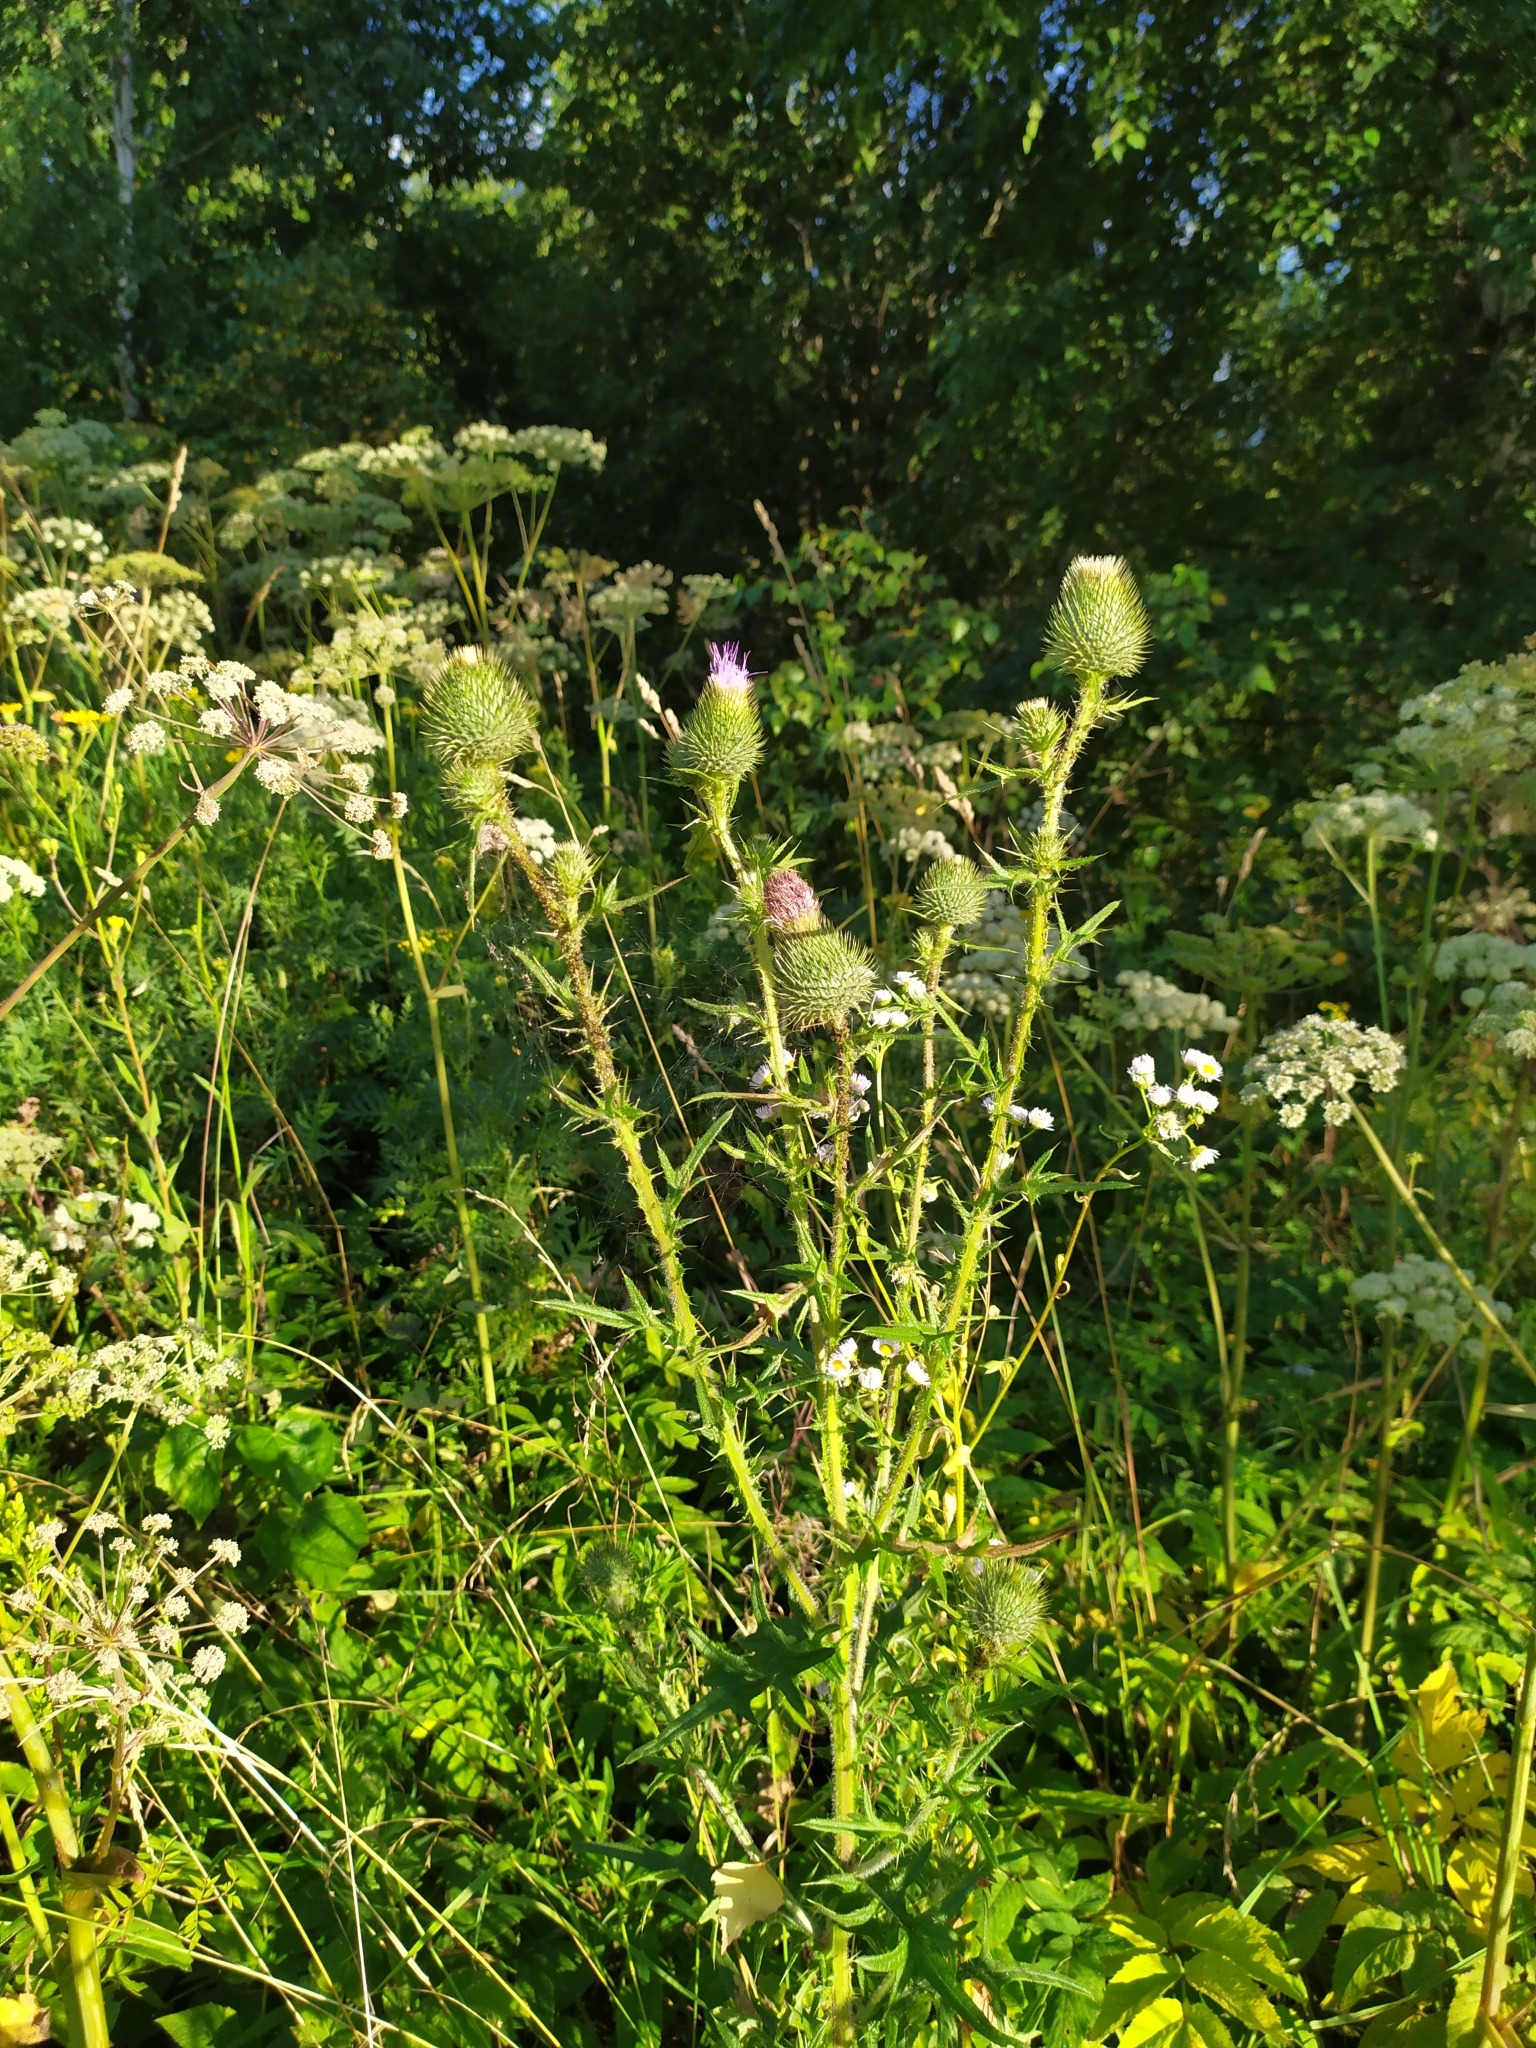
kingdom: Plantae
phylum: Tracheophyta
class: Magnoliopsida
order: Asterales
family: Asteraceae
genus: Cirsium
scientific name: Cirsium vulgare
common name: Bull thistle
